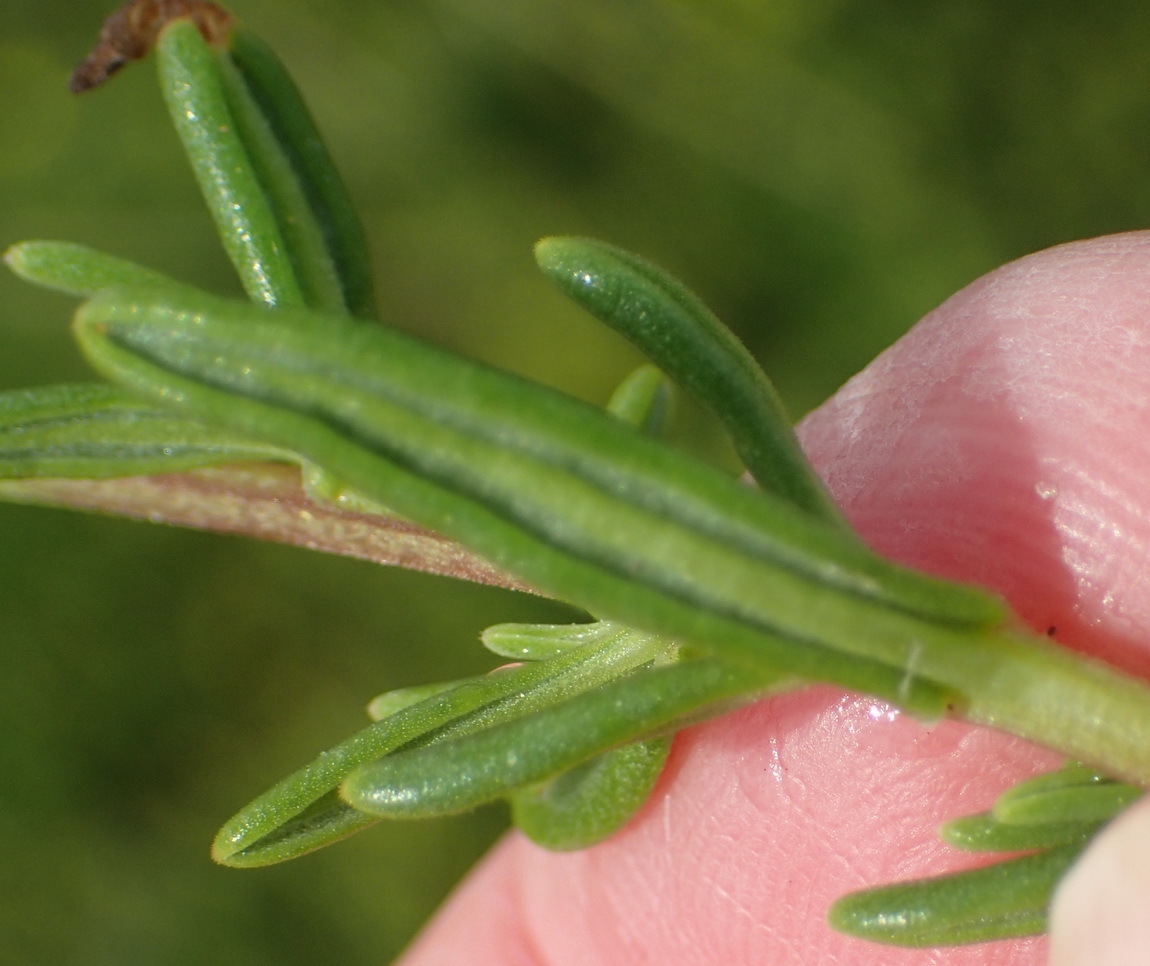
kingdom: Plantae
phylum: Tracheophyta
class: Magnoliopsida
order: Caryophyllales
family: Aizoaceae
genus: Tetragonia
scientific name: Tetragonia fruticosa
